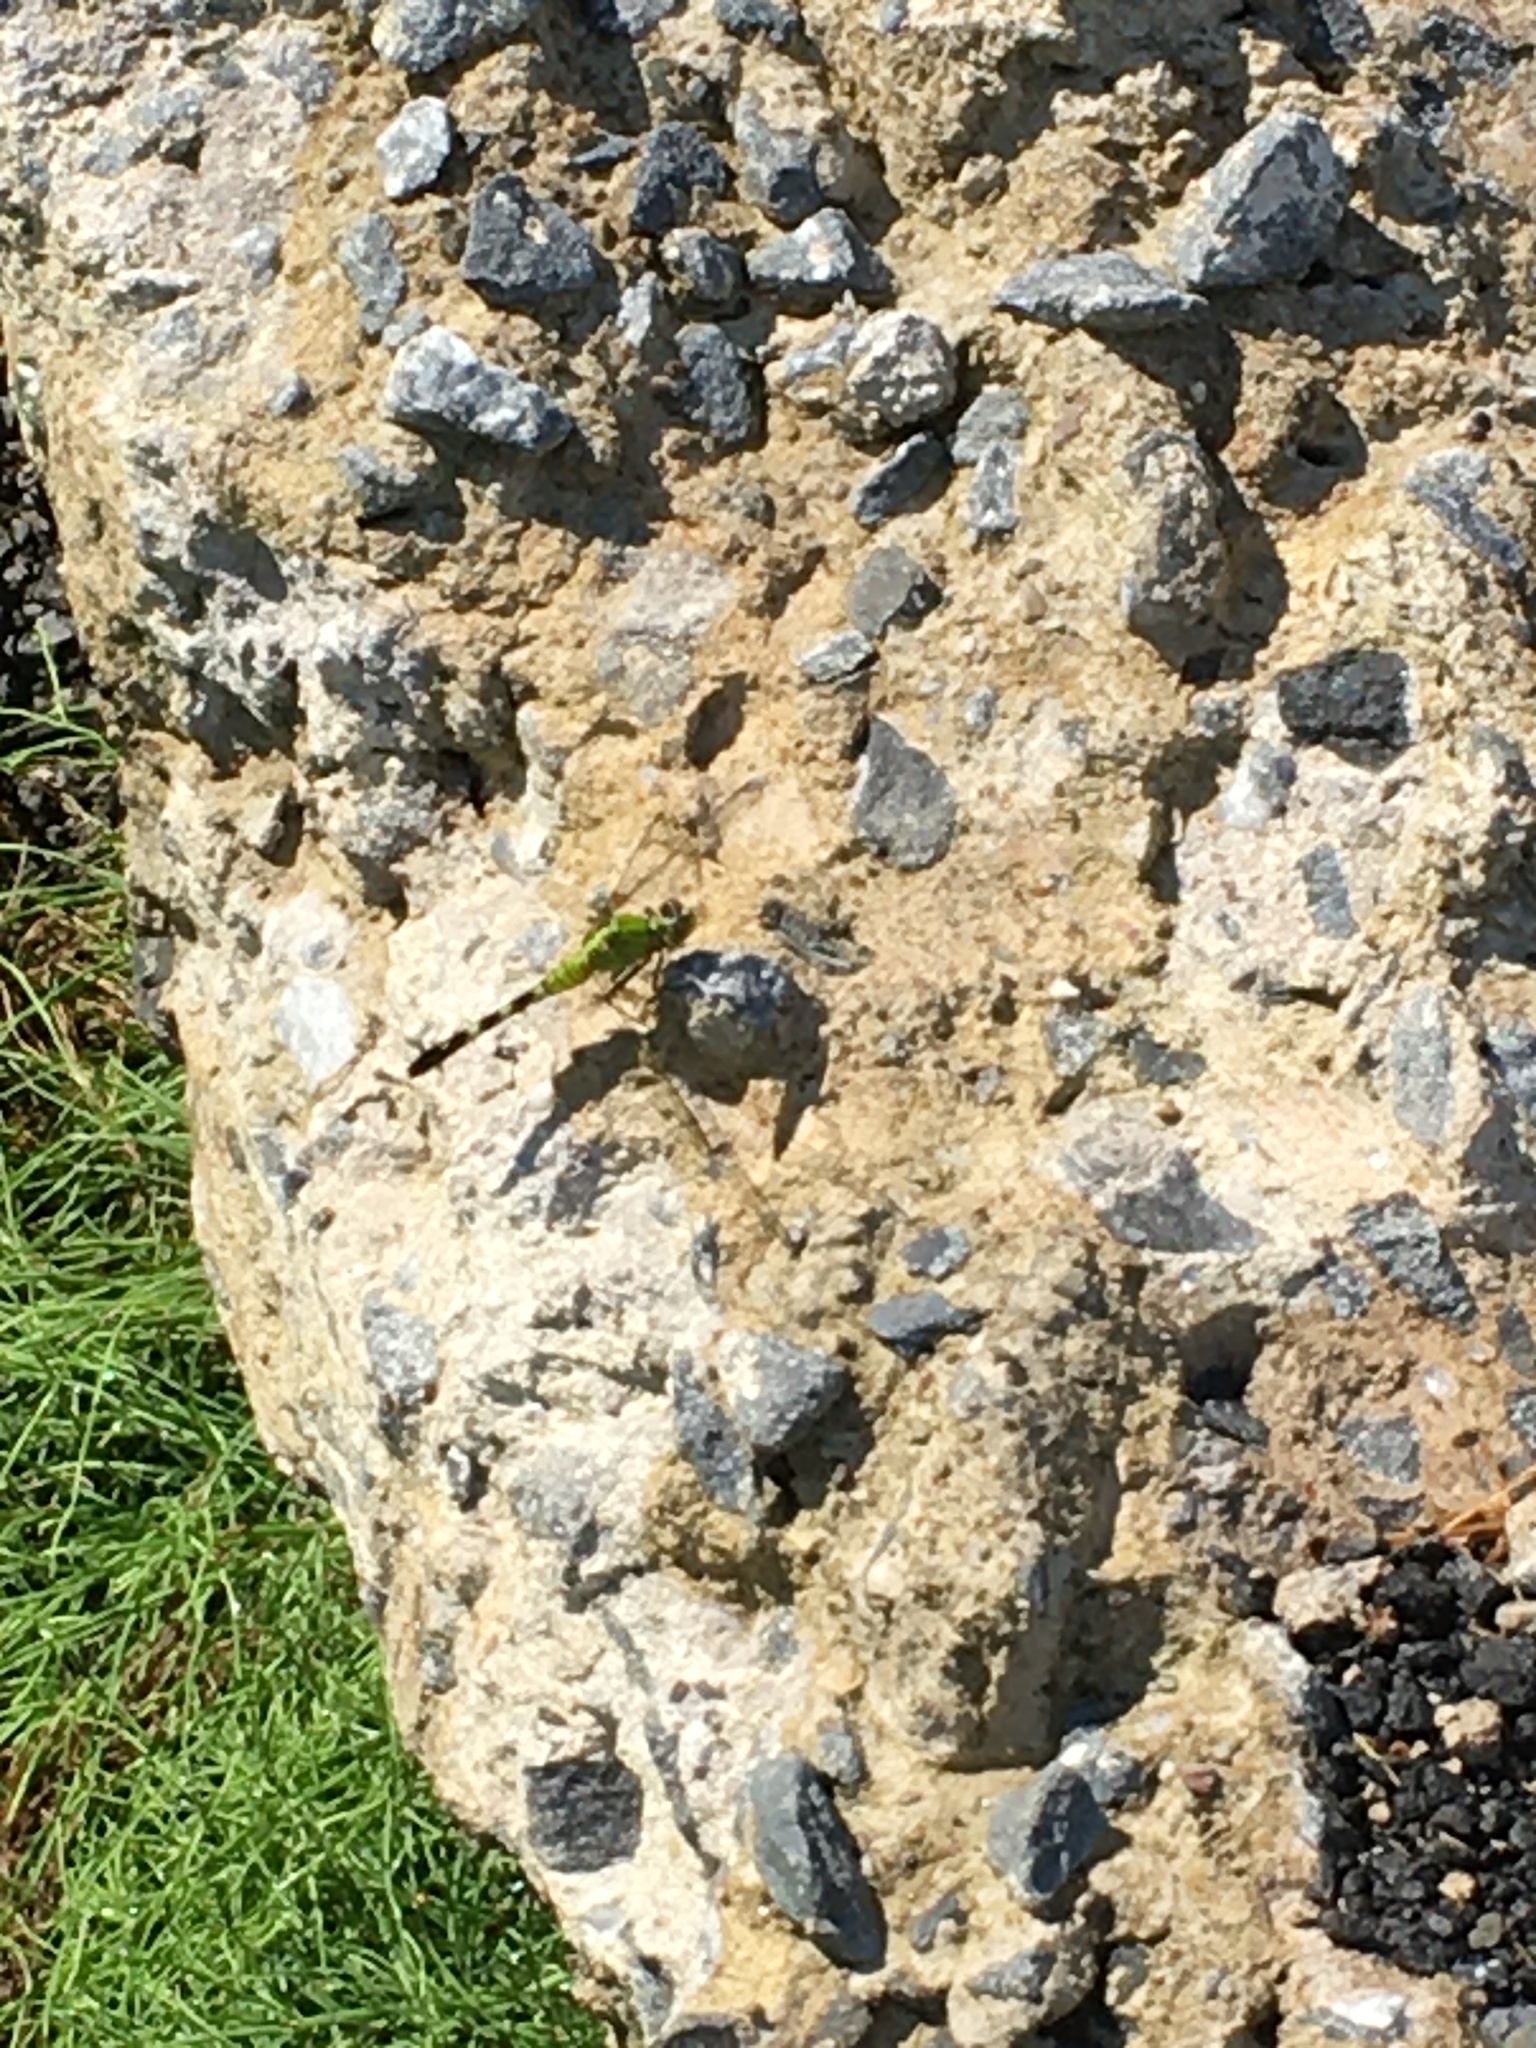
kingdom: Animalia
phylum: Arthropoda
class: Insecta
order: Odonata
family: Libellulidae
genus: Erythemis
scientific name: Erythemis simplicicollis
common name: Eastern pondhawk
